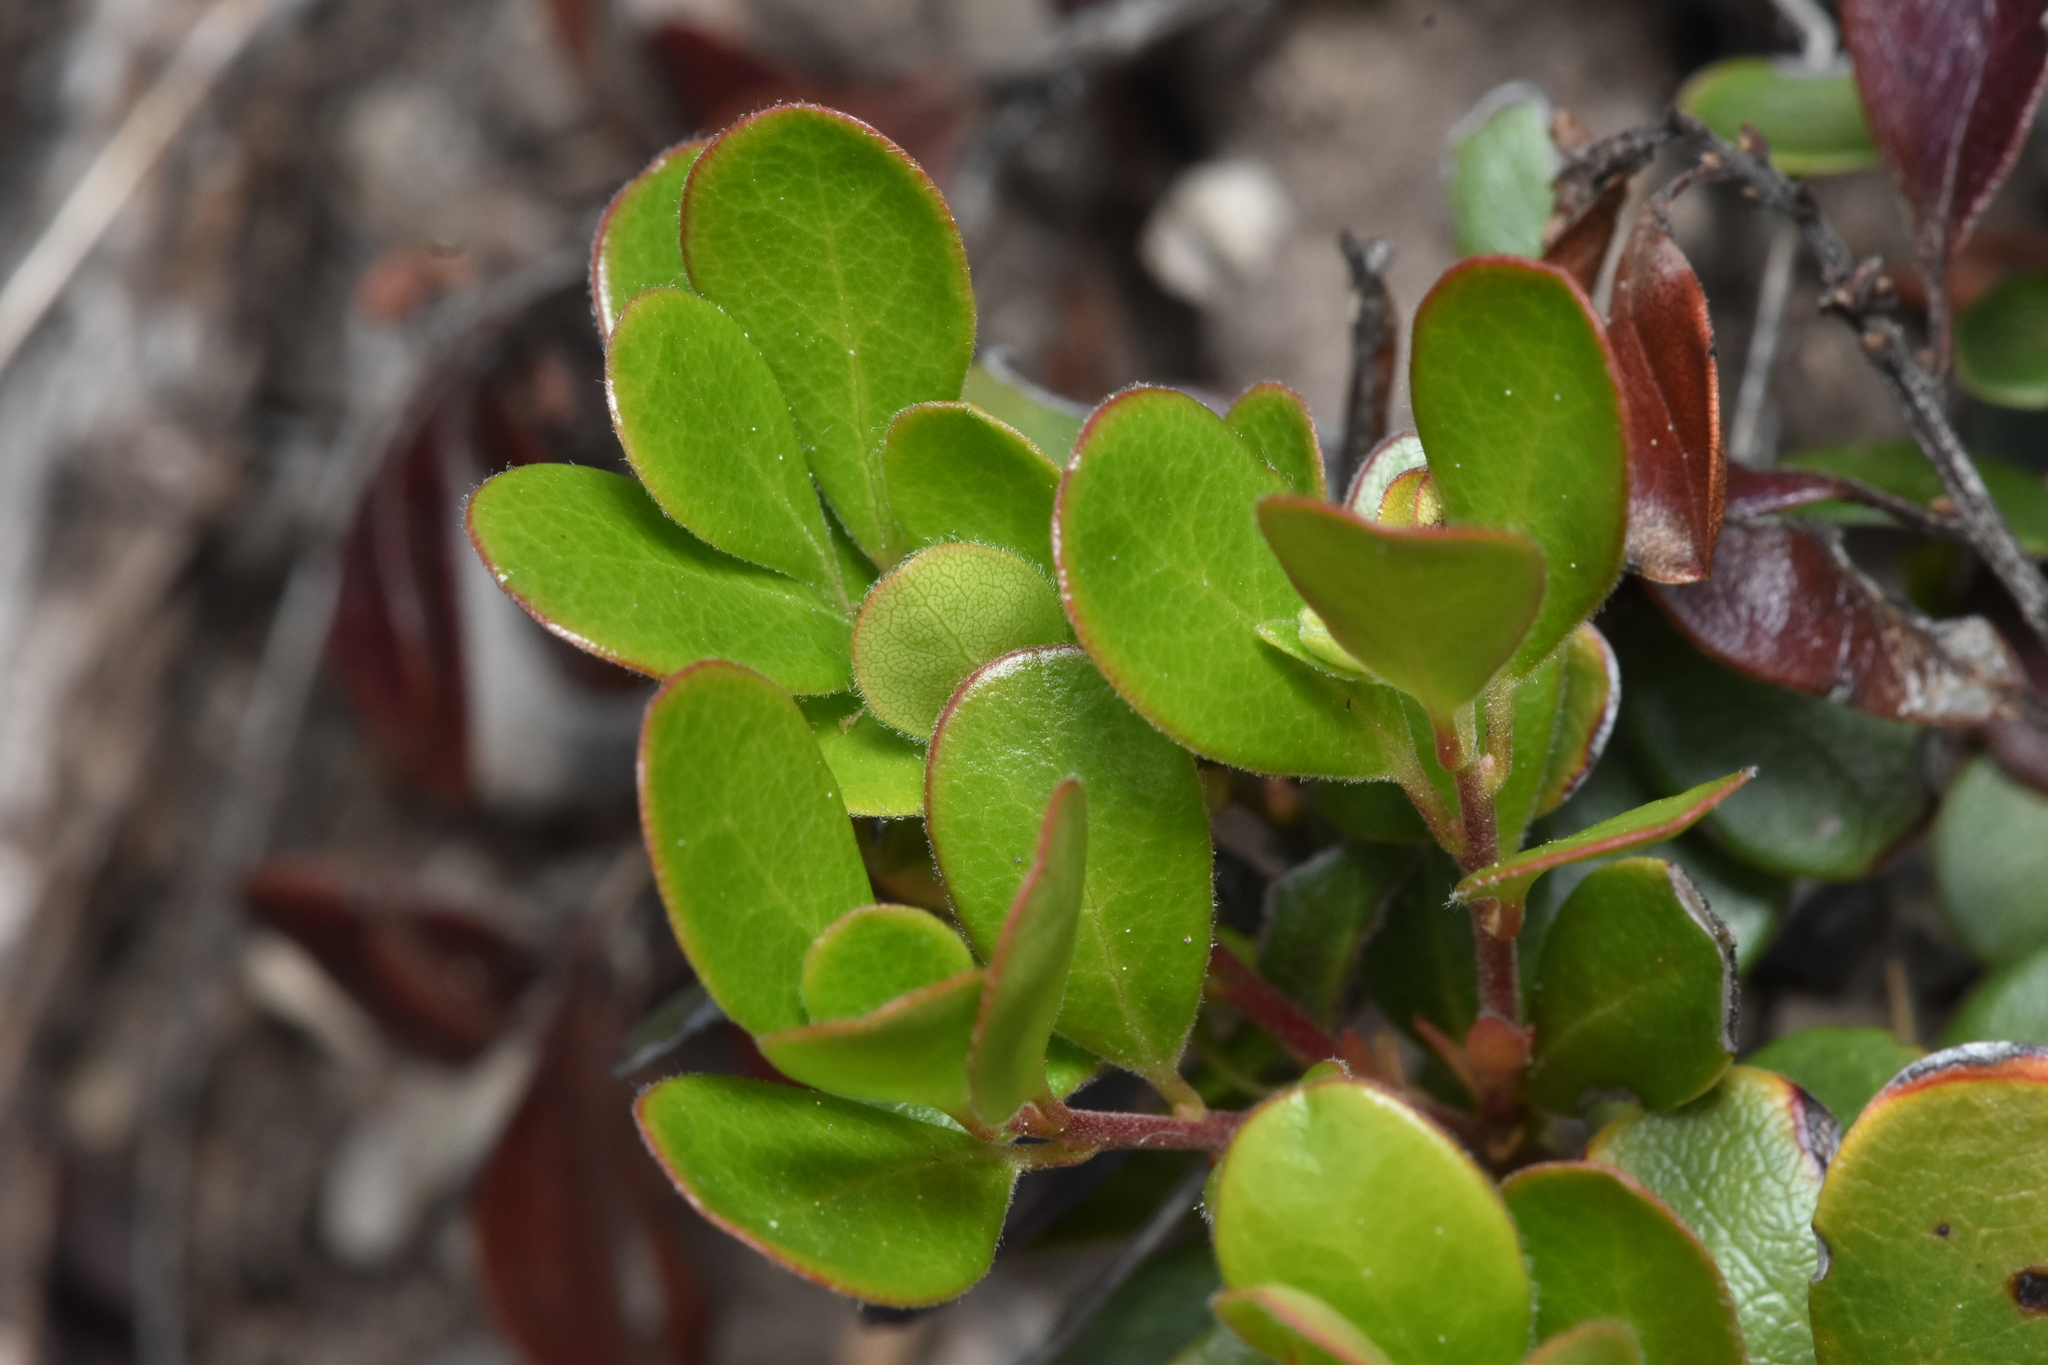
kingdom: Plantae
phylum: Tracheophyta
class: Magnoliopsida
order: Ericales
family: Ericaceae
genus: Arctostaphylos
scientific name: Arctostaphylos uva-ursi
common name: Bearberry
